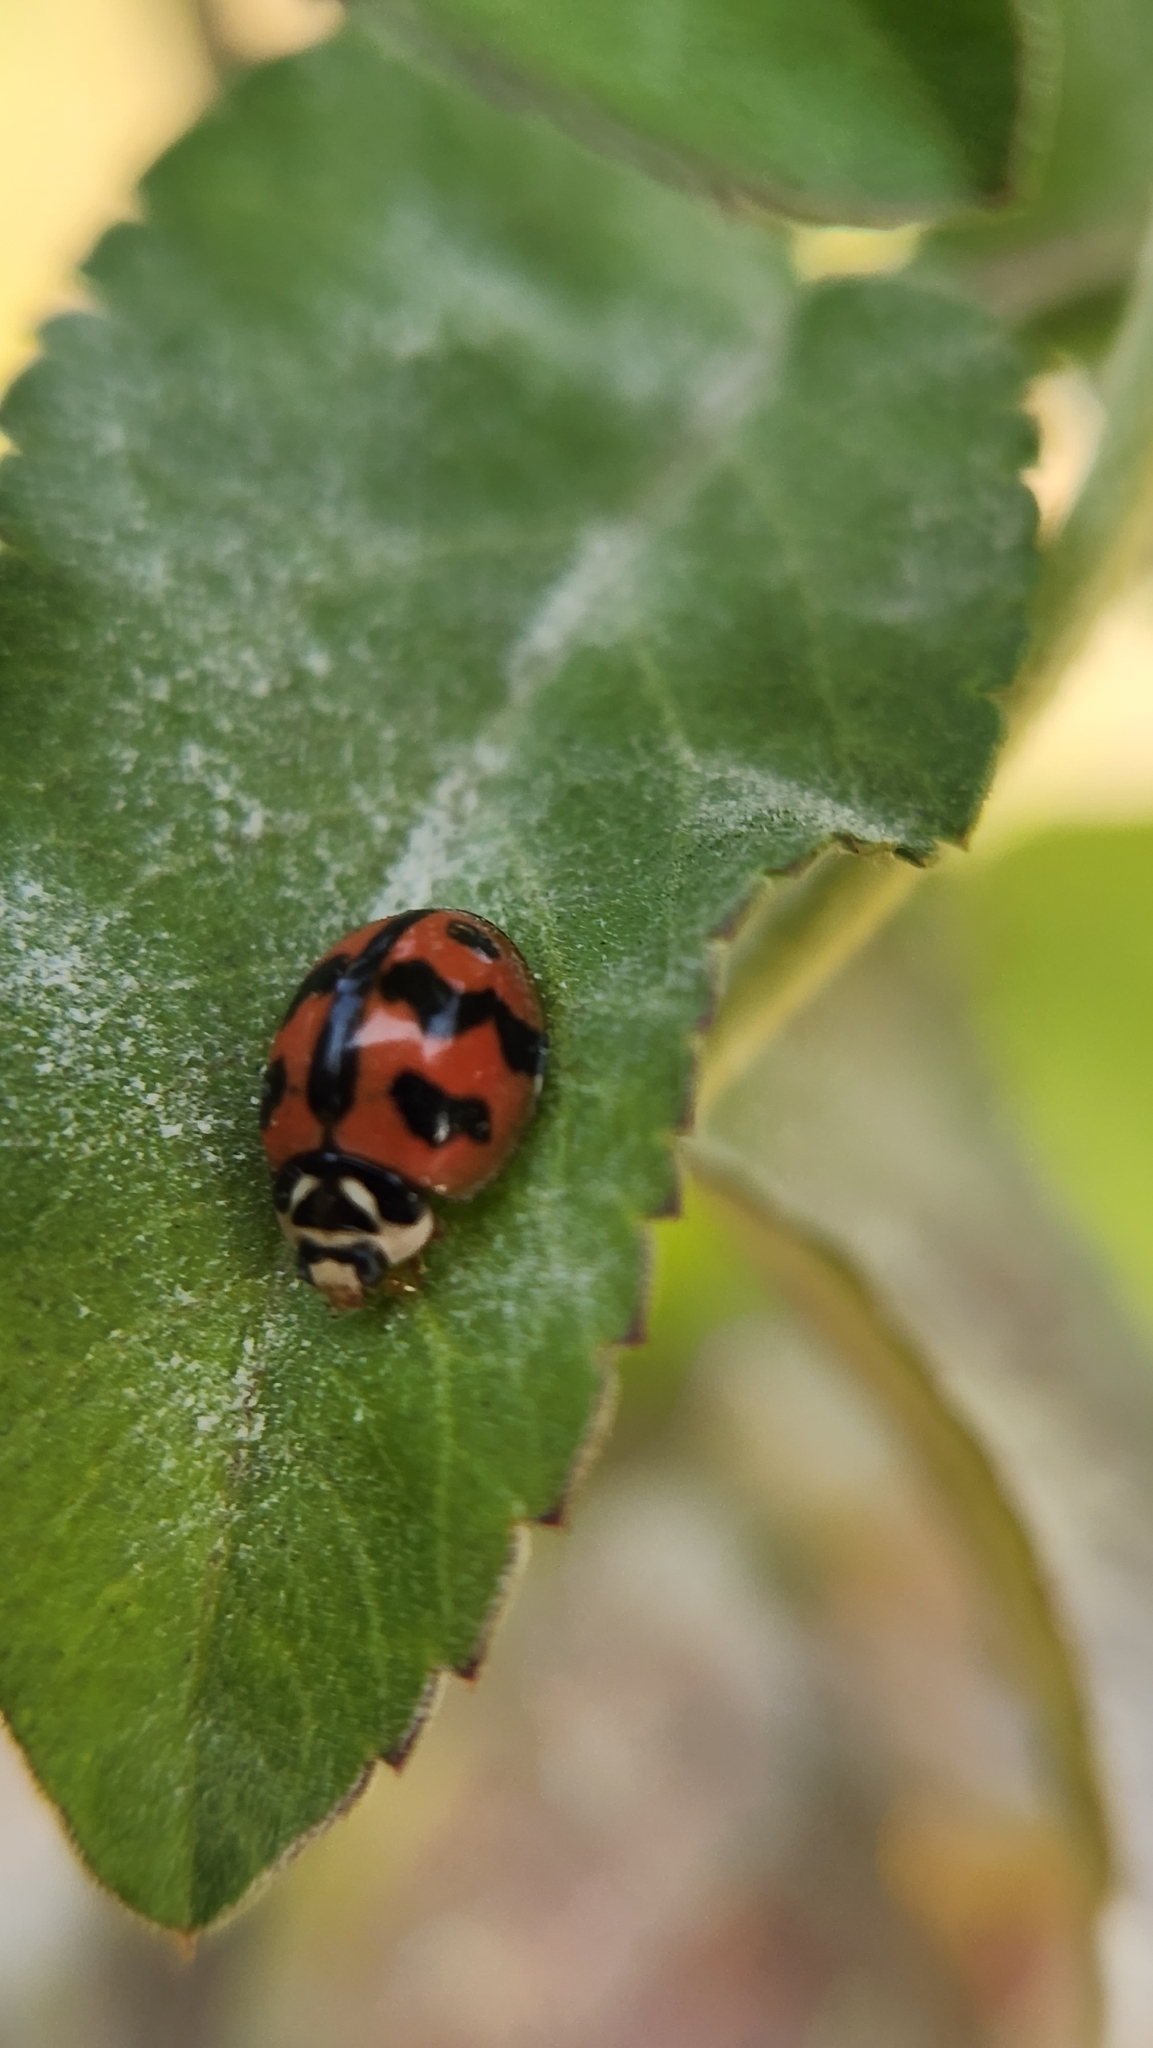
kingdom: Animalia
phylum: Arthropoda
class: Insecta
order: Coleoptera
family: Coccinellidae
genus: Cheilomenes
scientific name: Cheilomenes sexmaculata
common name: Ladybird beetle
